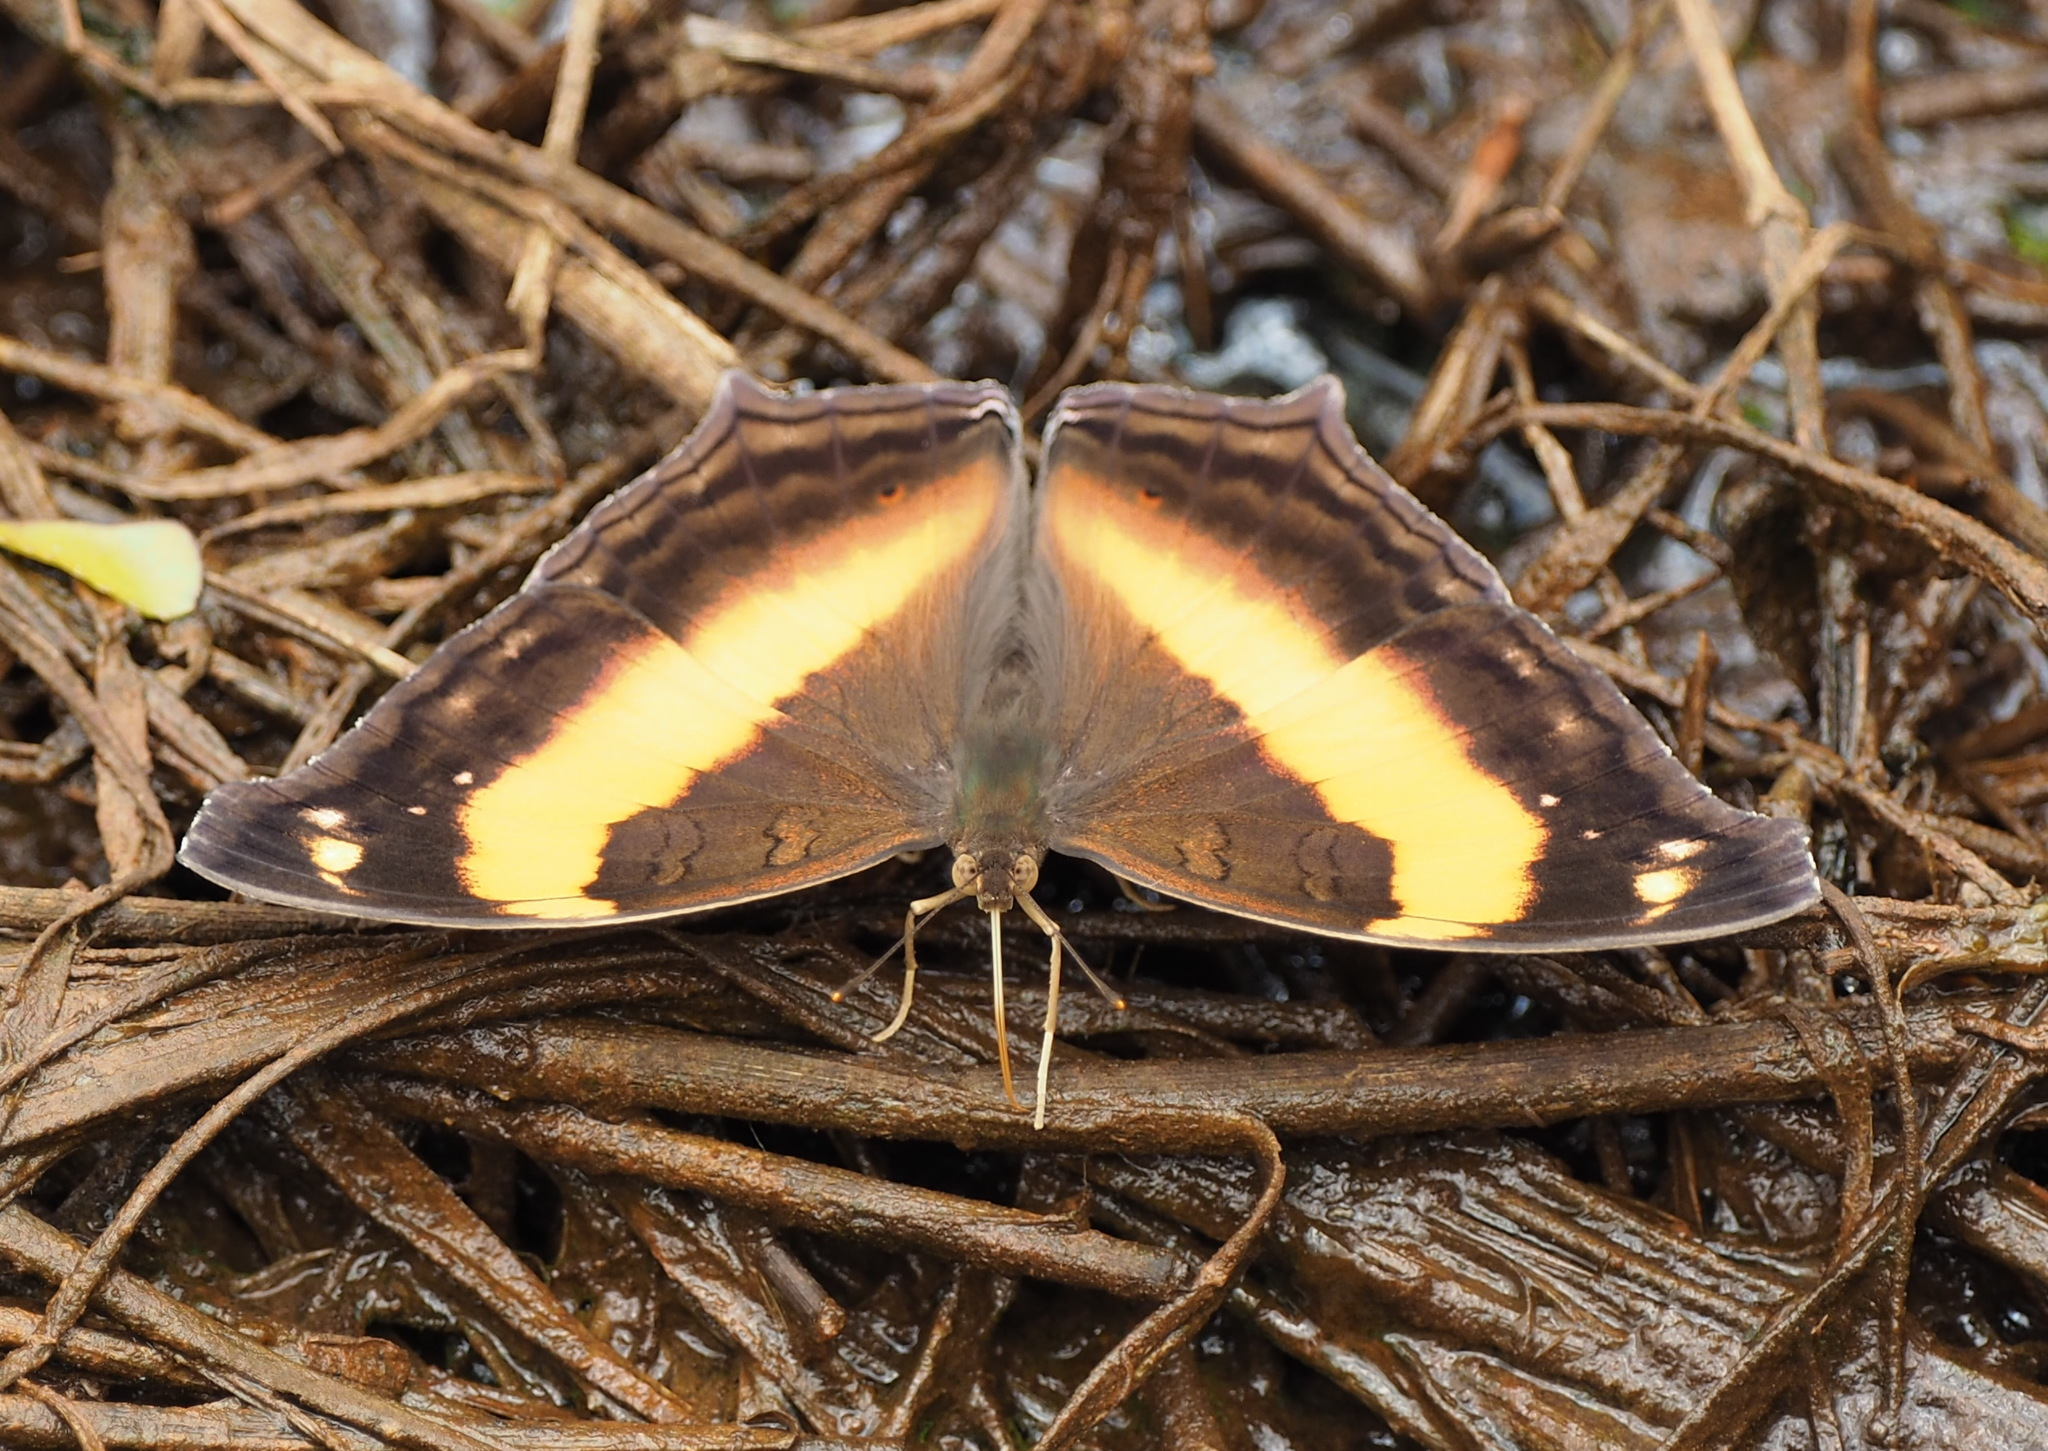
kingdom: Animalia
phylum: Arthropoda
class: Insecta
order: Lepidoptera
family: Nymphalidae
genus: Yoma
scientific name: Yoma sabina
